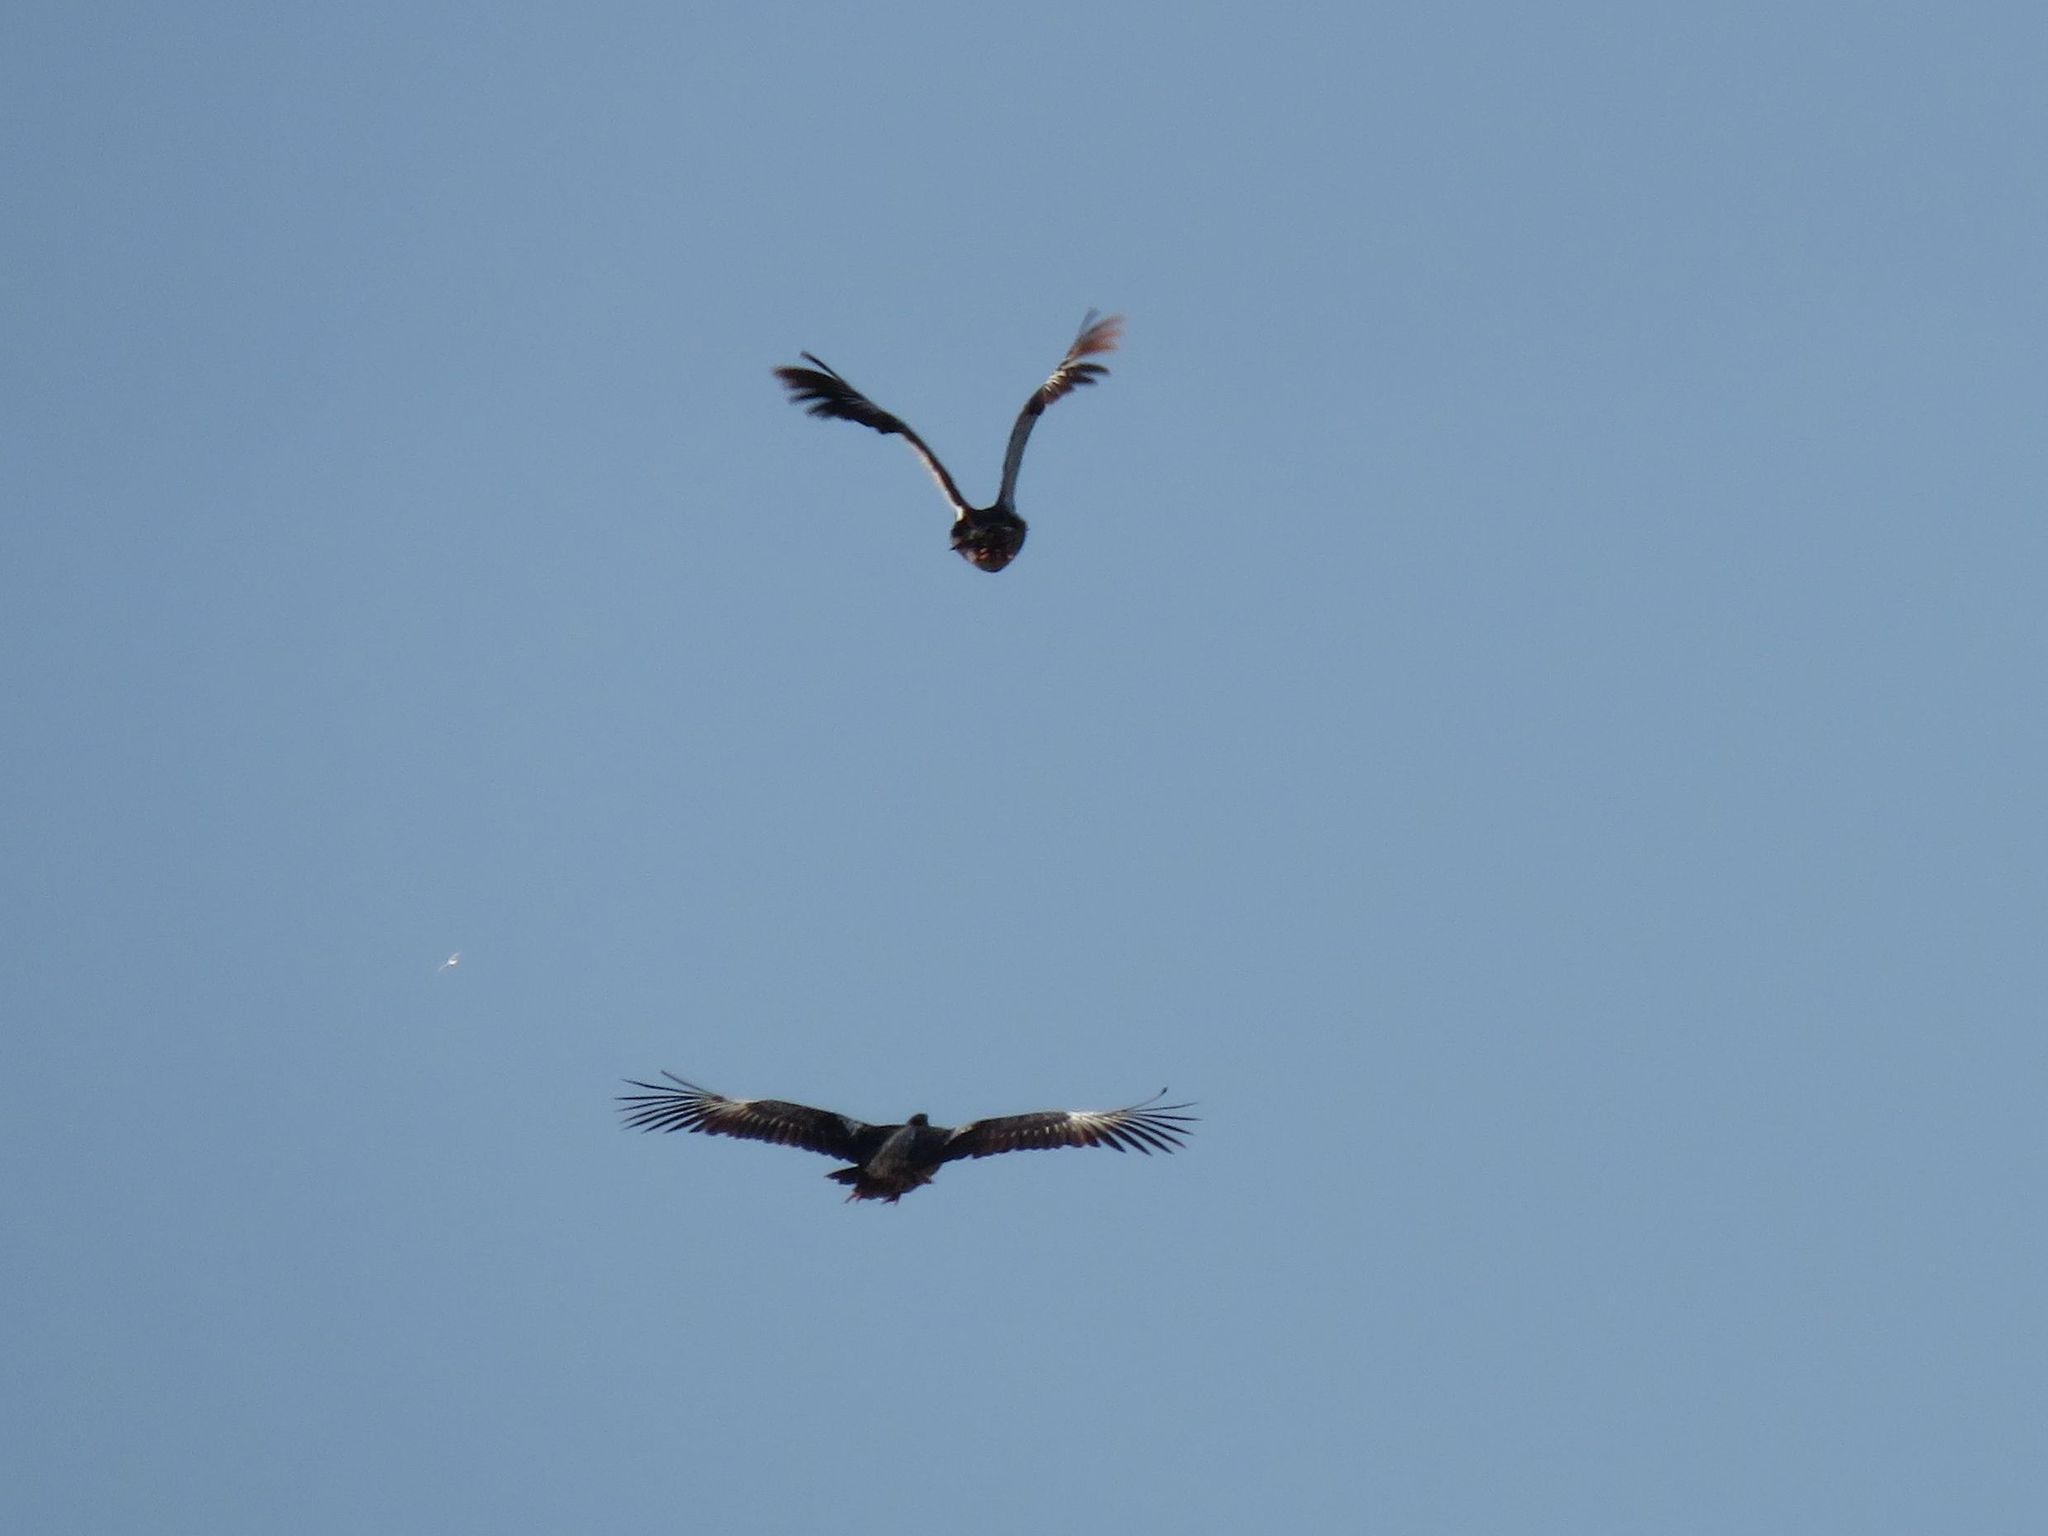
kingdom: Animalia
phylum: Chordata
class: Aves
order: Anseriformes
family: Anhimidae
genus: Chauna
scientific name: Chauna torquata
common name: Southern screamer
